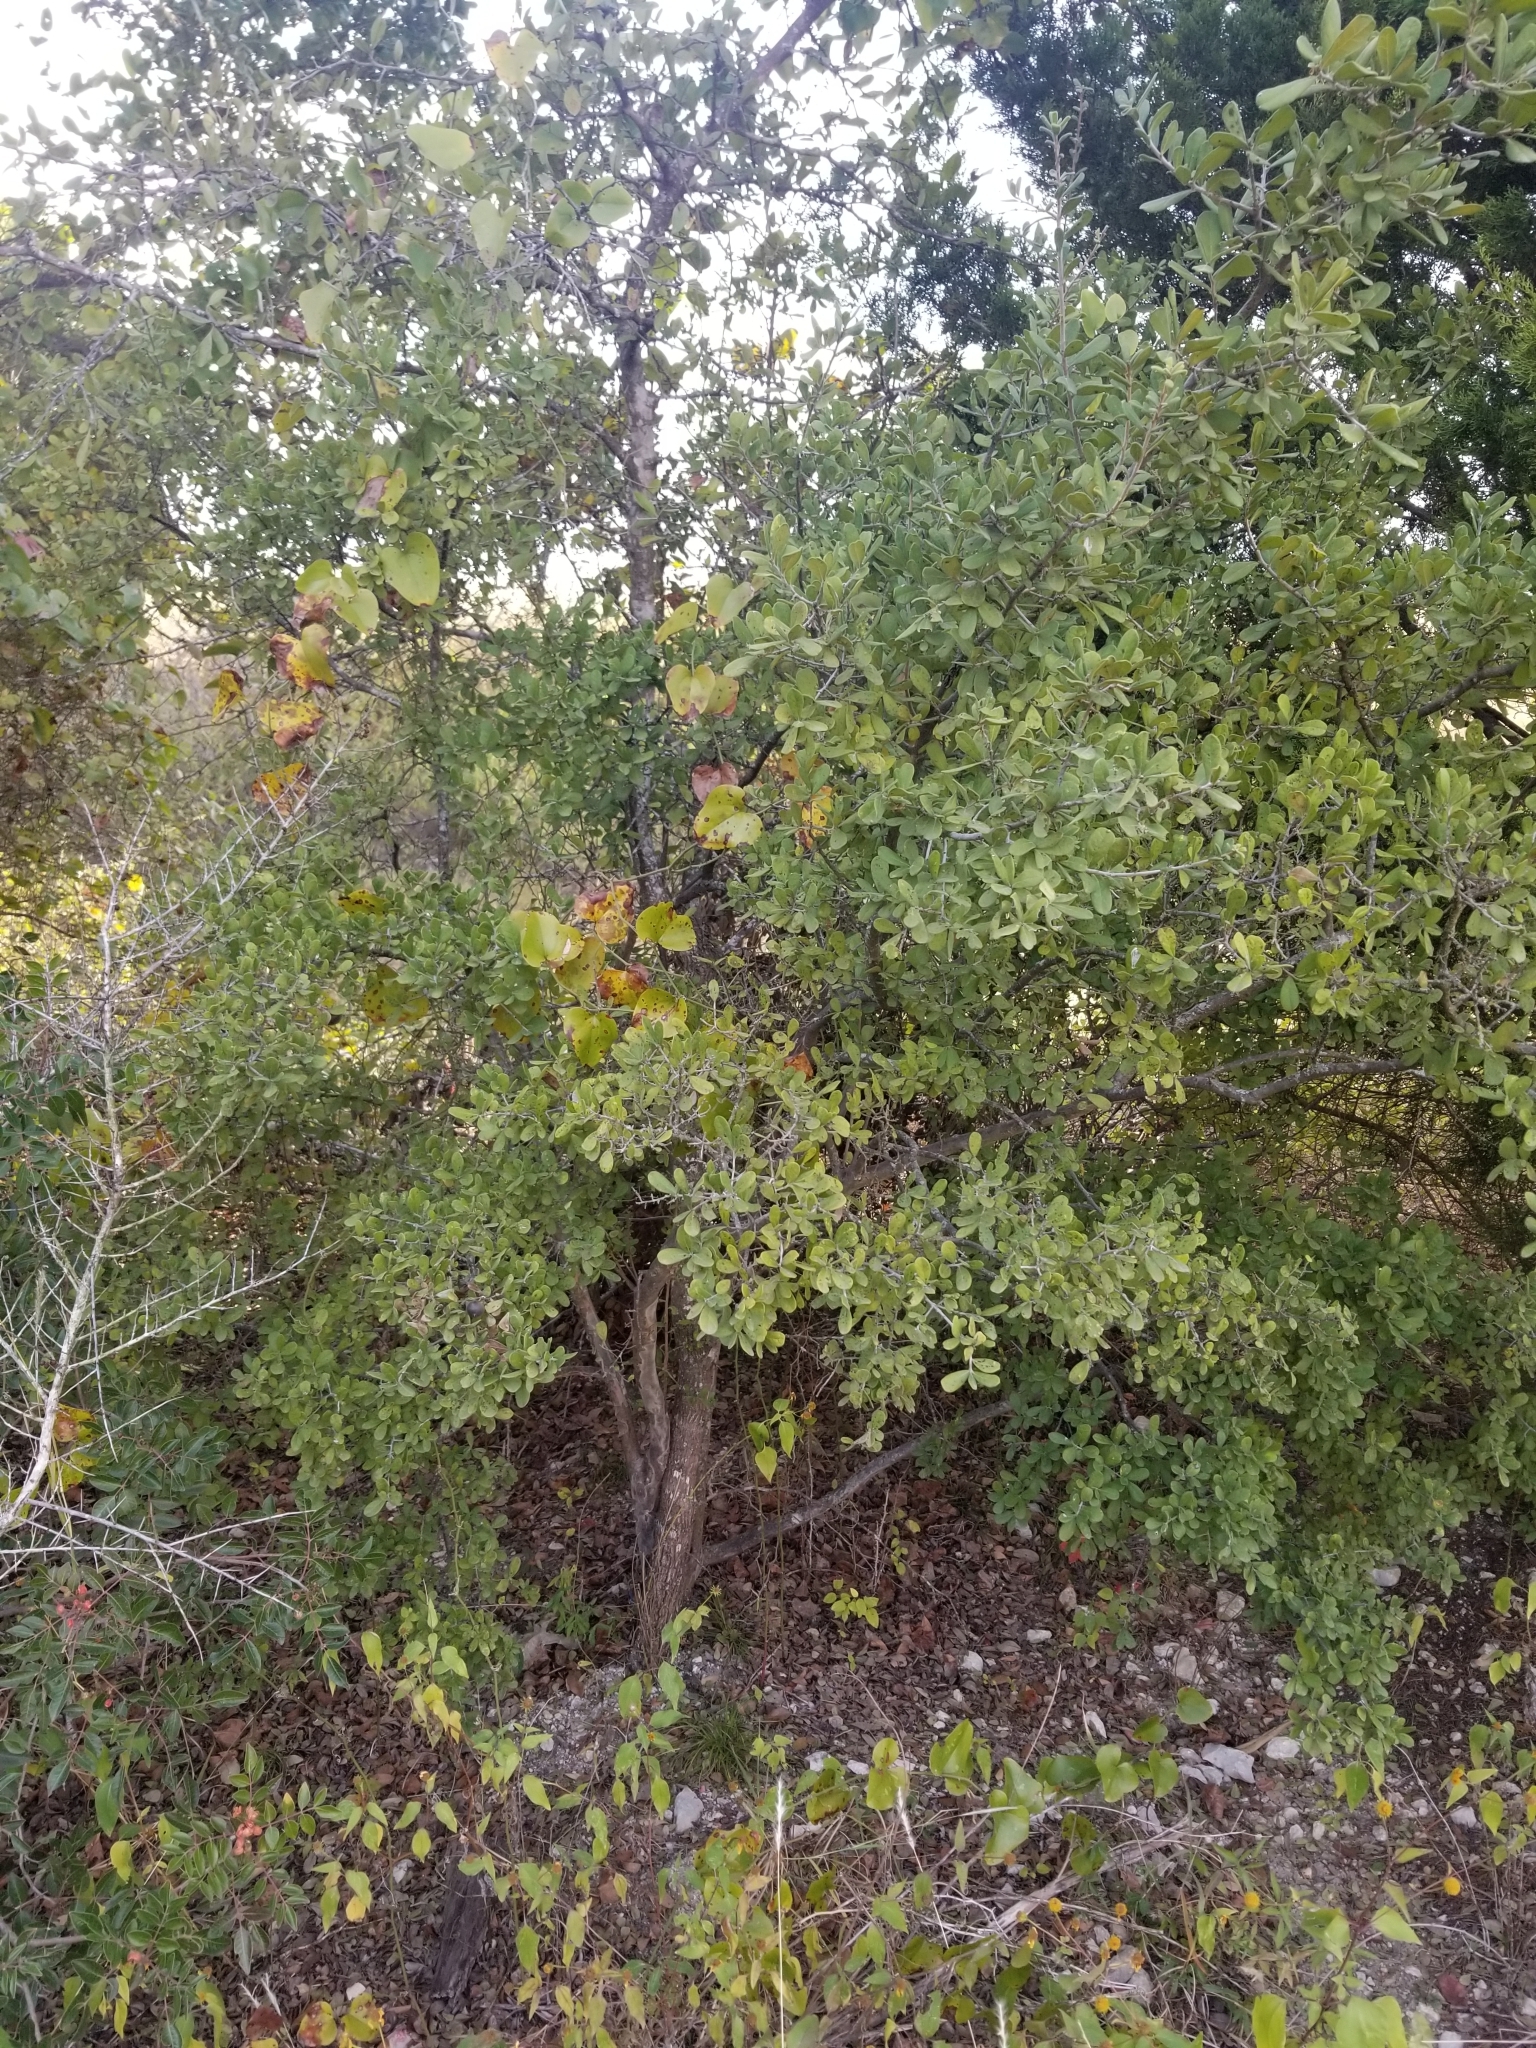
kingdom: Plantae
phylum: Tracheophyta
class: Magnoliopsida
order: Ericales
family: Ebenaceae
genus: Diospyros
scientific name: Diospyros texana
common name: Texas persimmon
